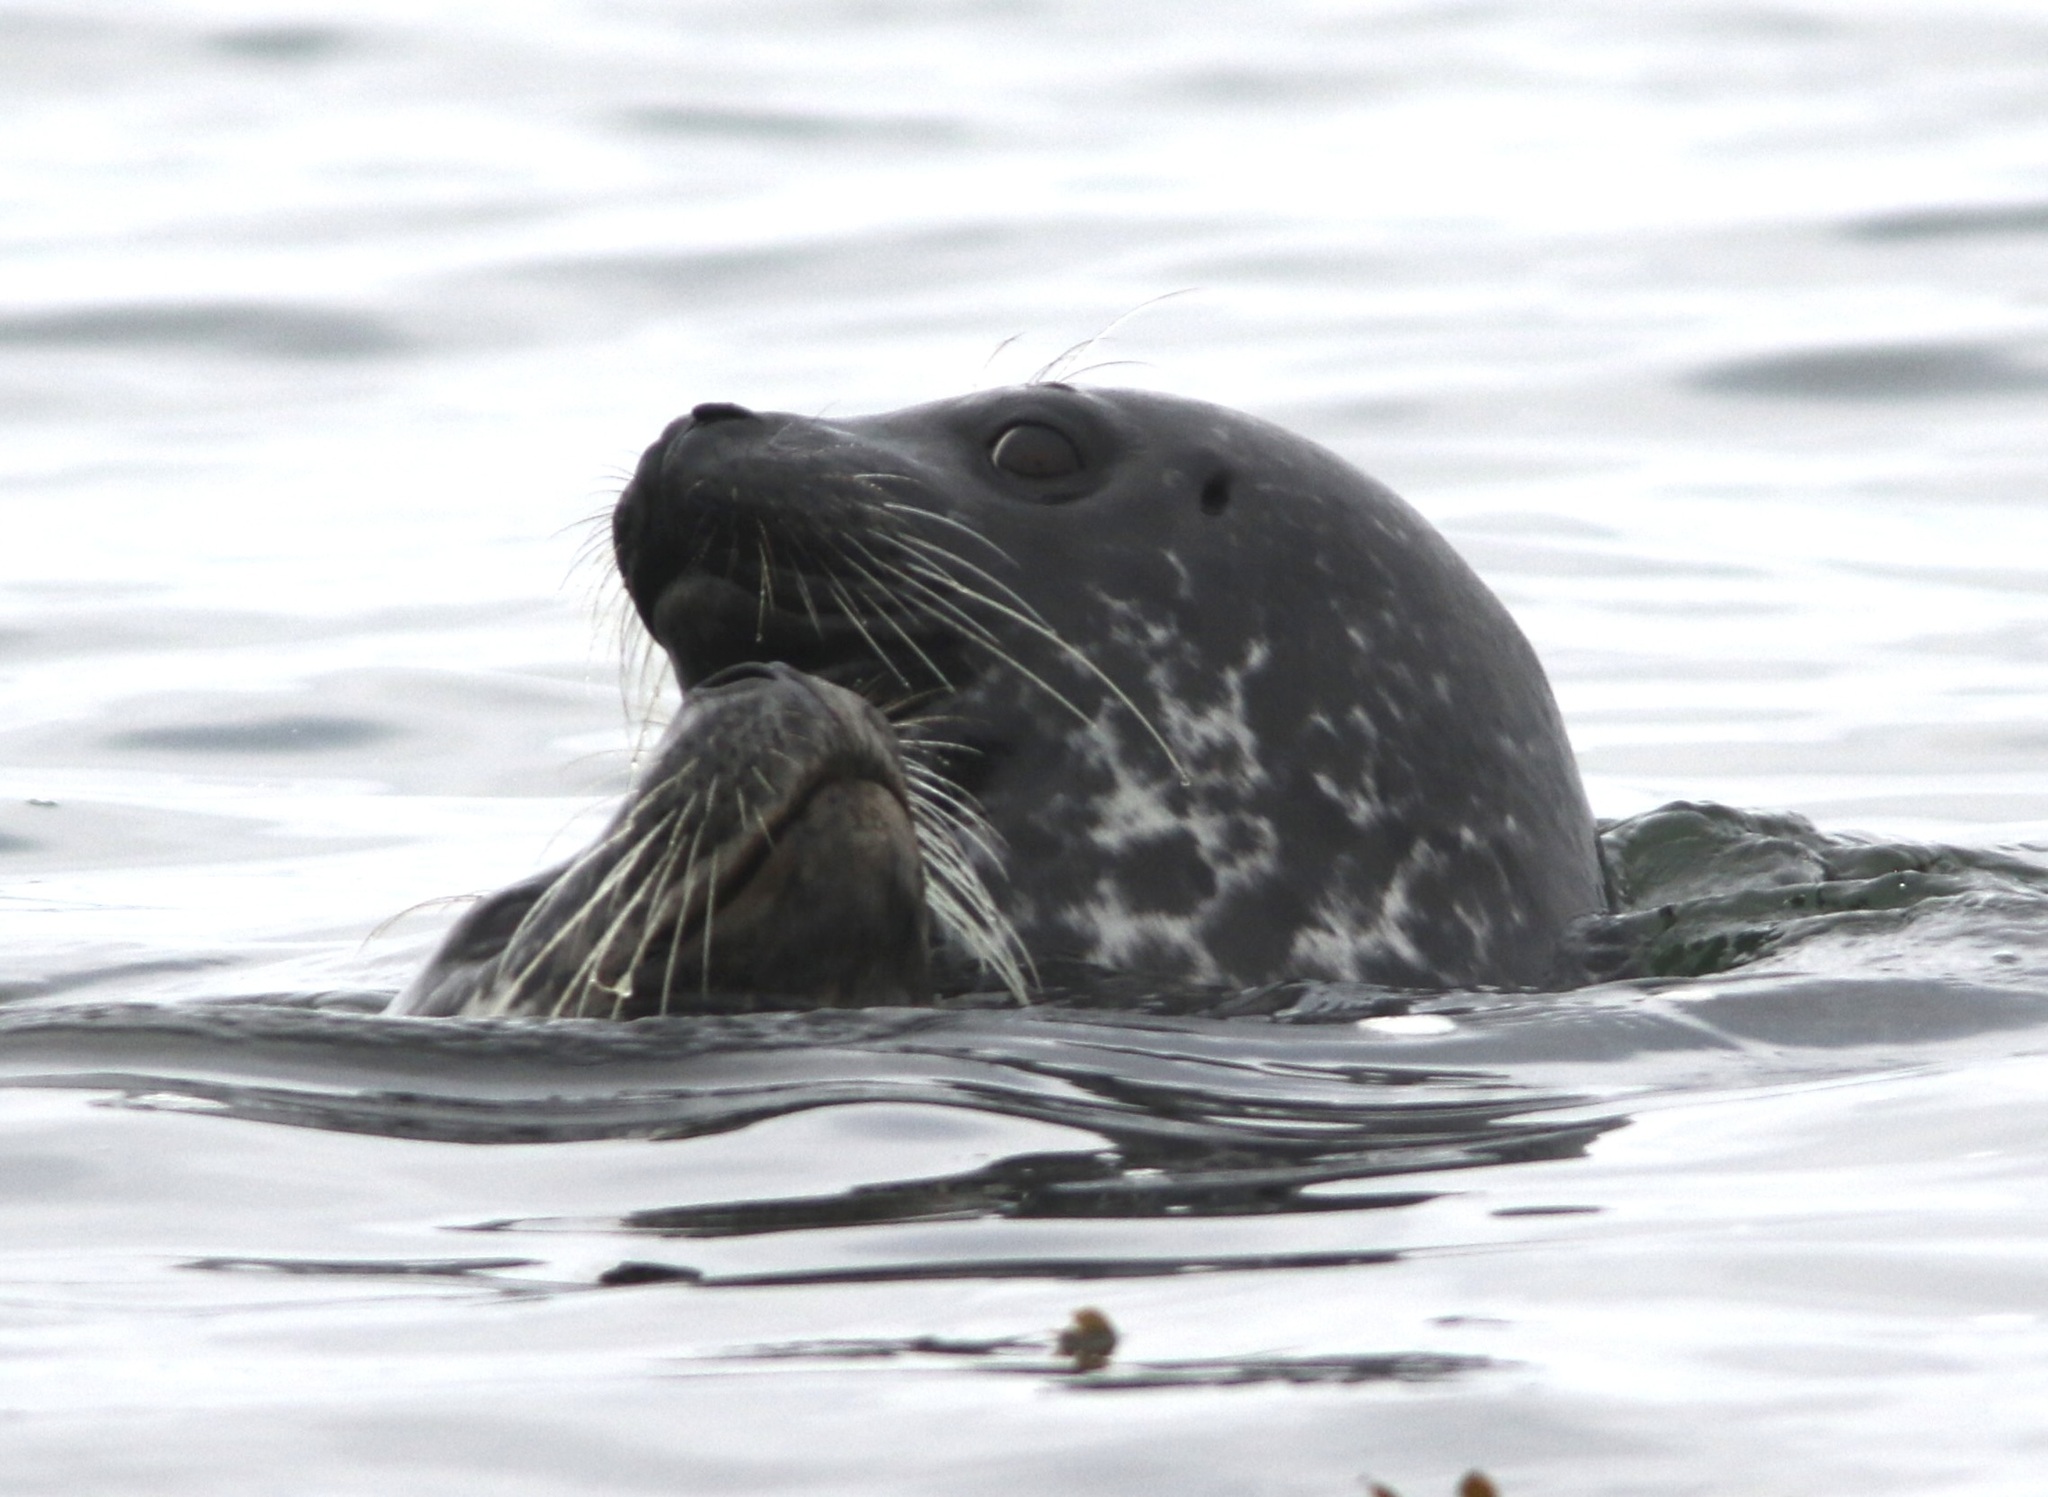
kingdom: Animalia
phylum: Chordata
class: Mammalia
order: Carnivora
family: Phocidae
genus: Phoca
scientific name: Phoca vitulina
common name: Harbor seal
